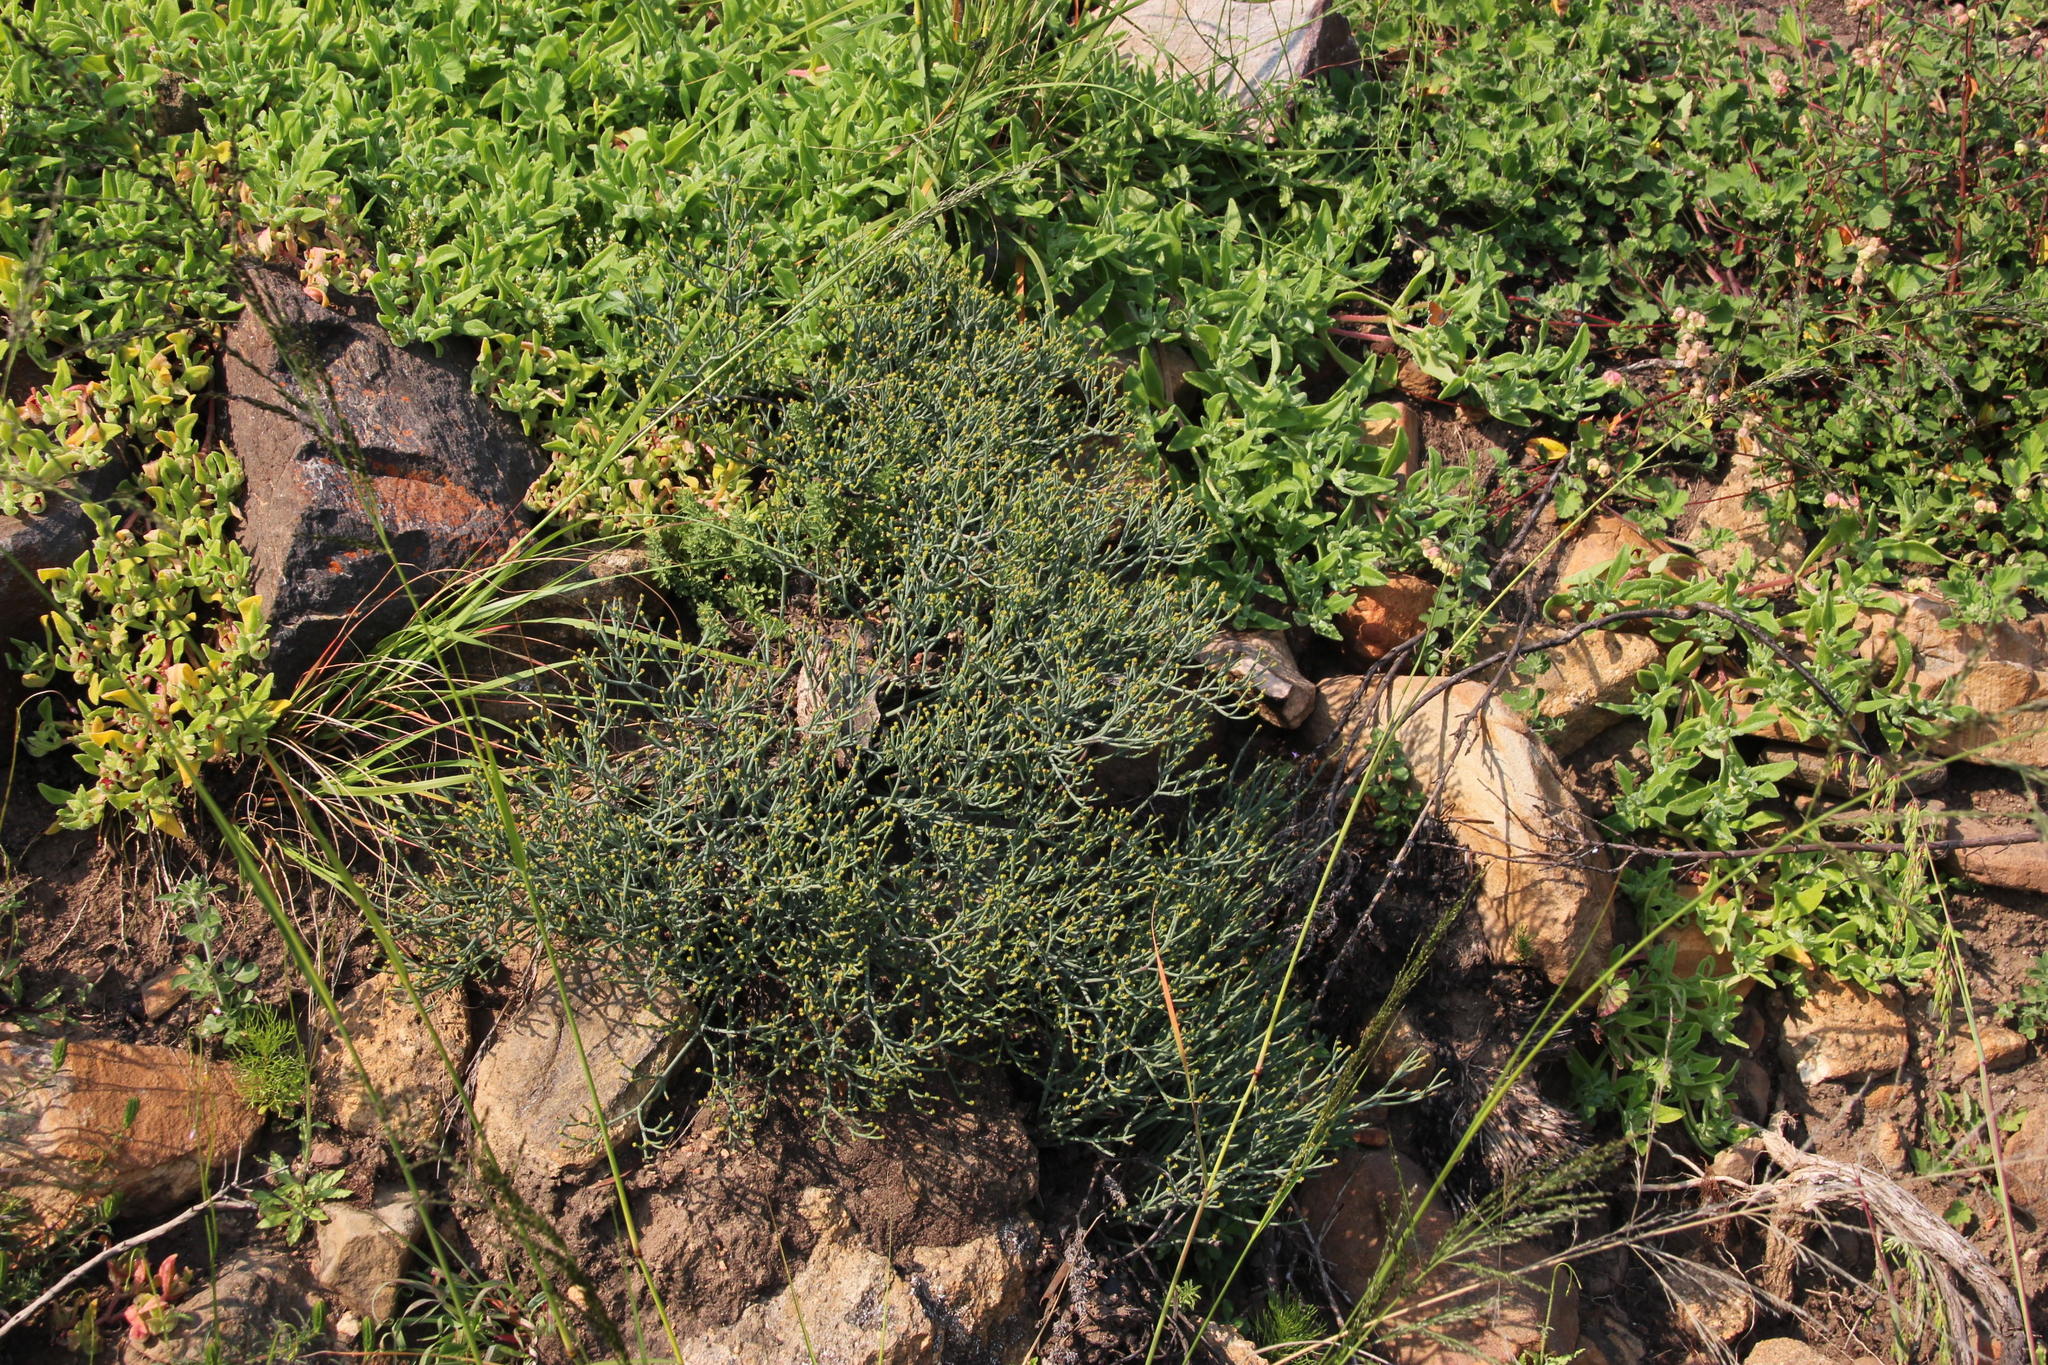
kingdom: Plantae
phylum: Tracheophyta
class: Magnoliopsida
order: Malpighiales
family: Euphorbiaceae
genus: Euphorbia
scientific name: Euphorbia tenax
